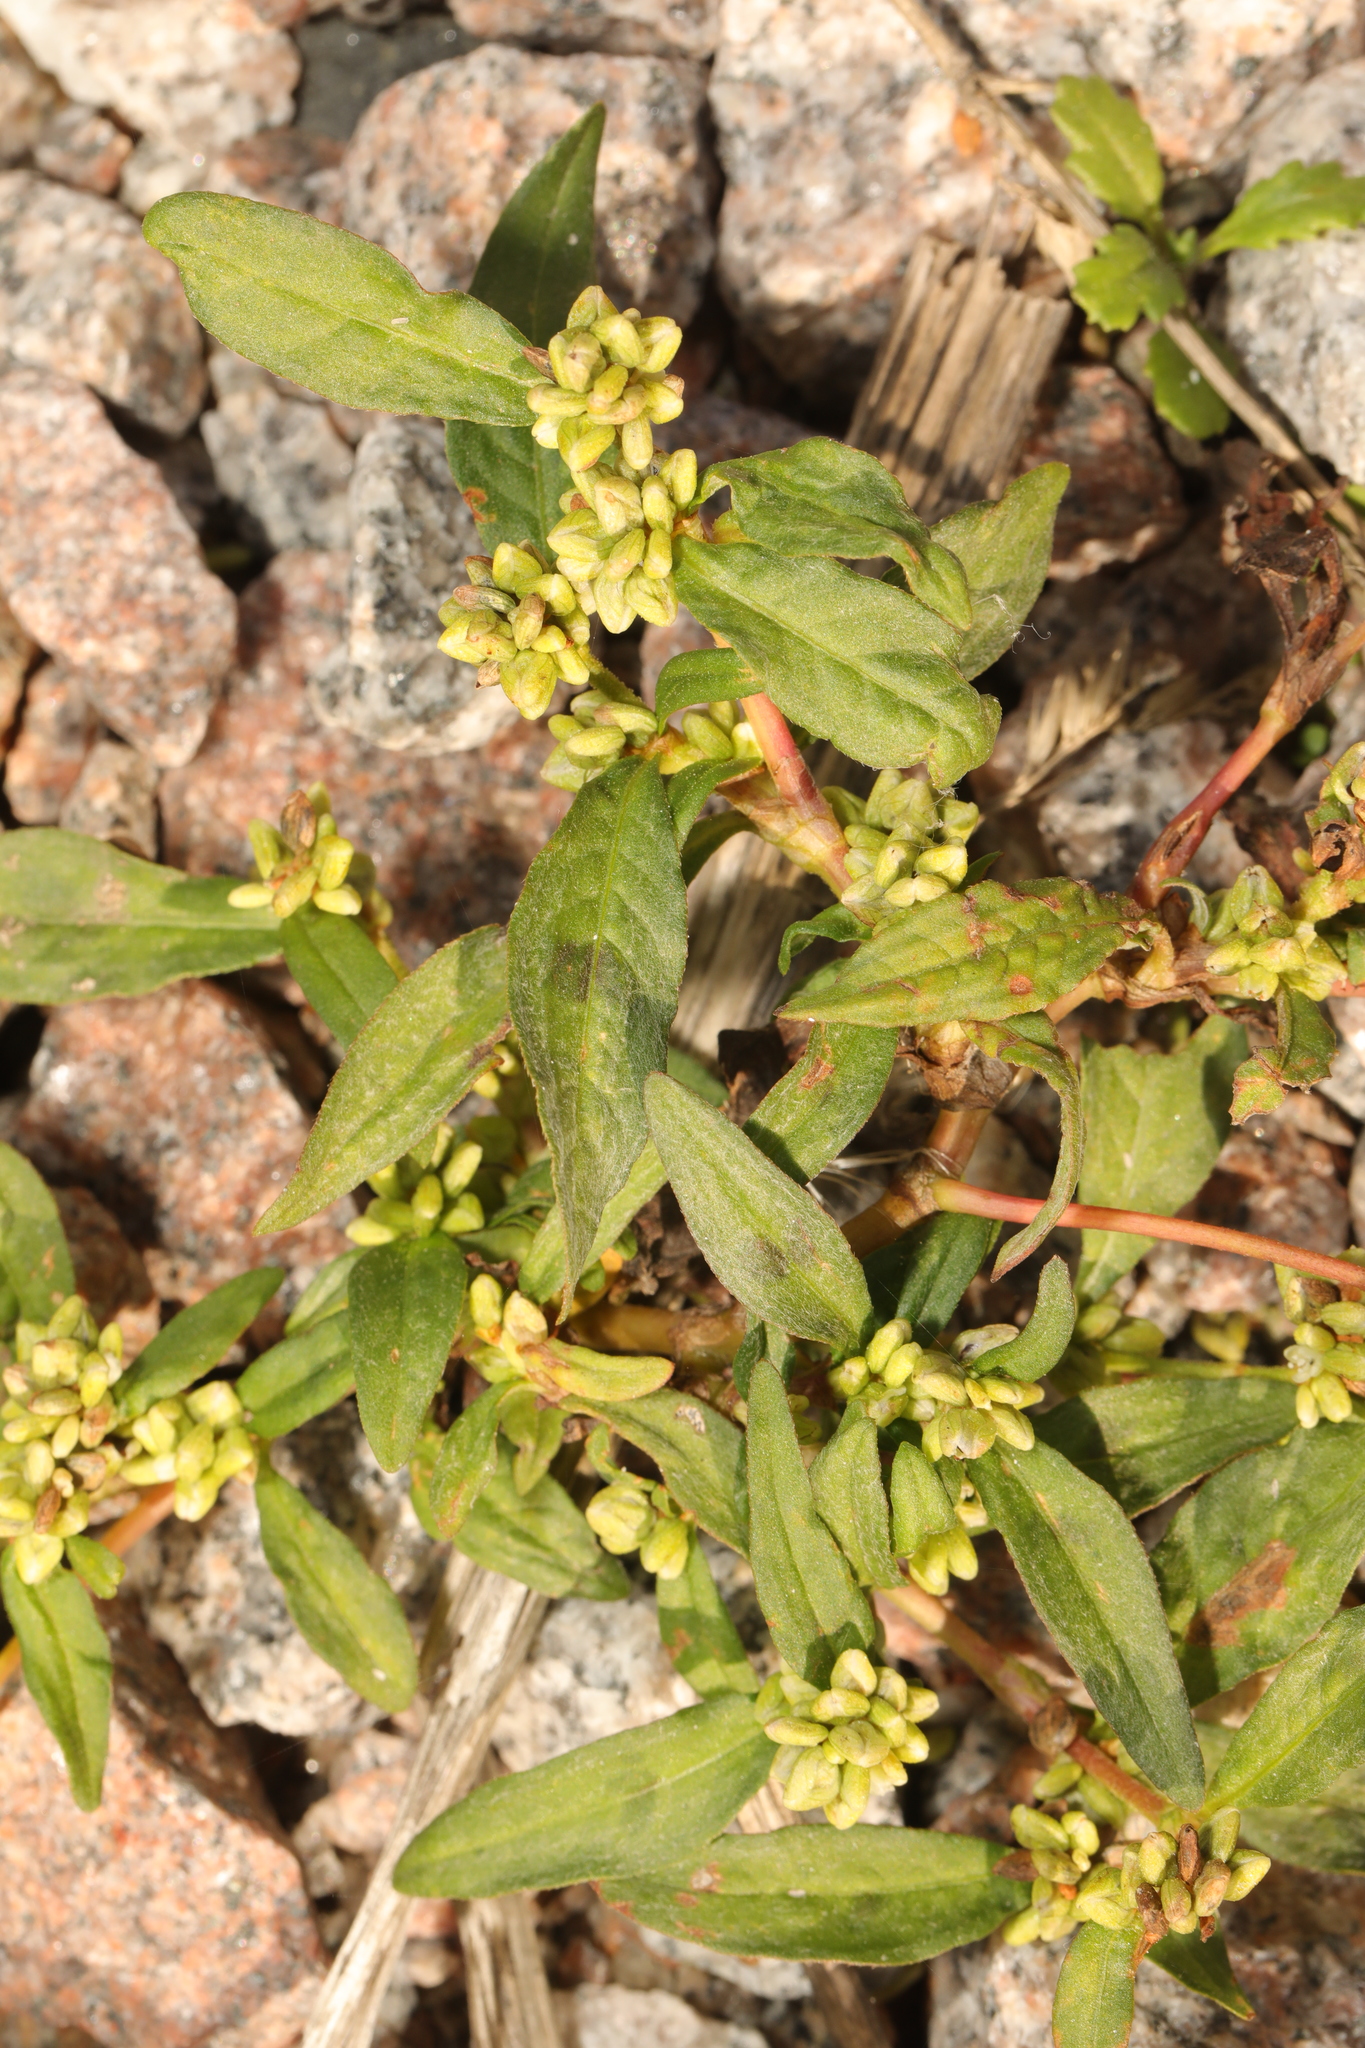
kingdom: Plantae
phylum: Tracheophyta
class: Magnoliopsida
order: Caryophyllales
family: Polygonaceae
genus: Persicaria
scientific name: Persicaria lapathifolia
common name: Curlytop knotweed
